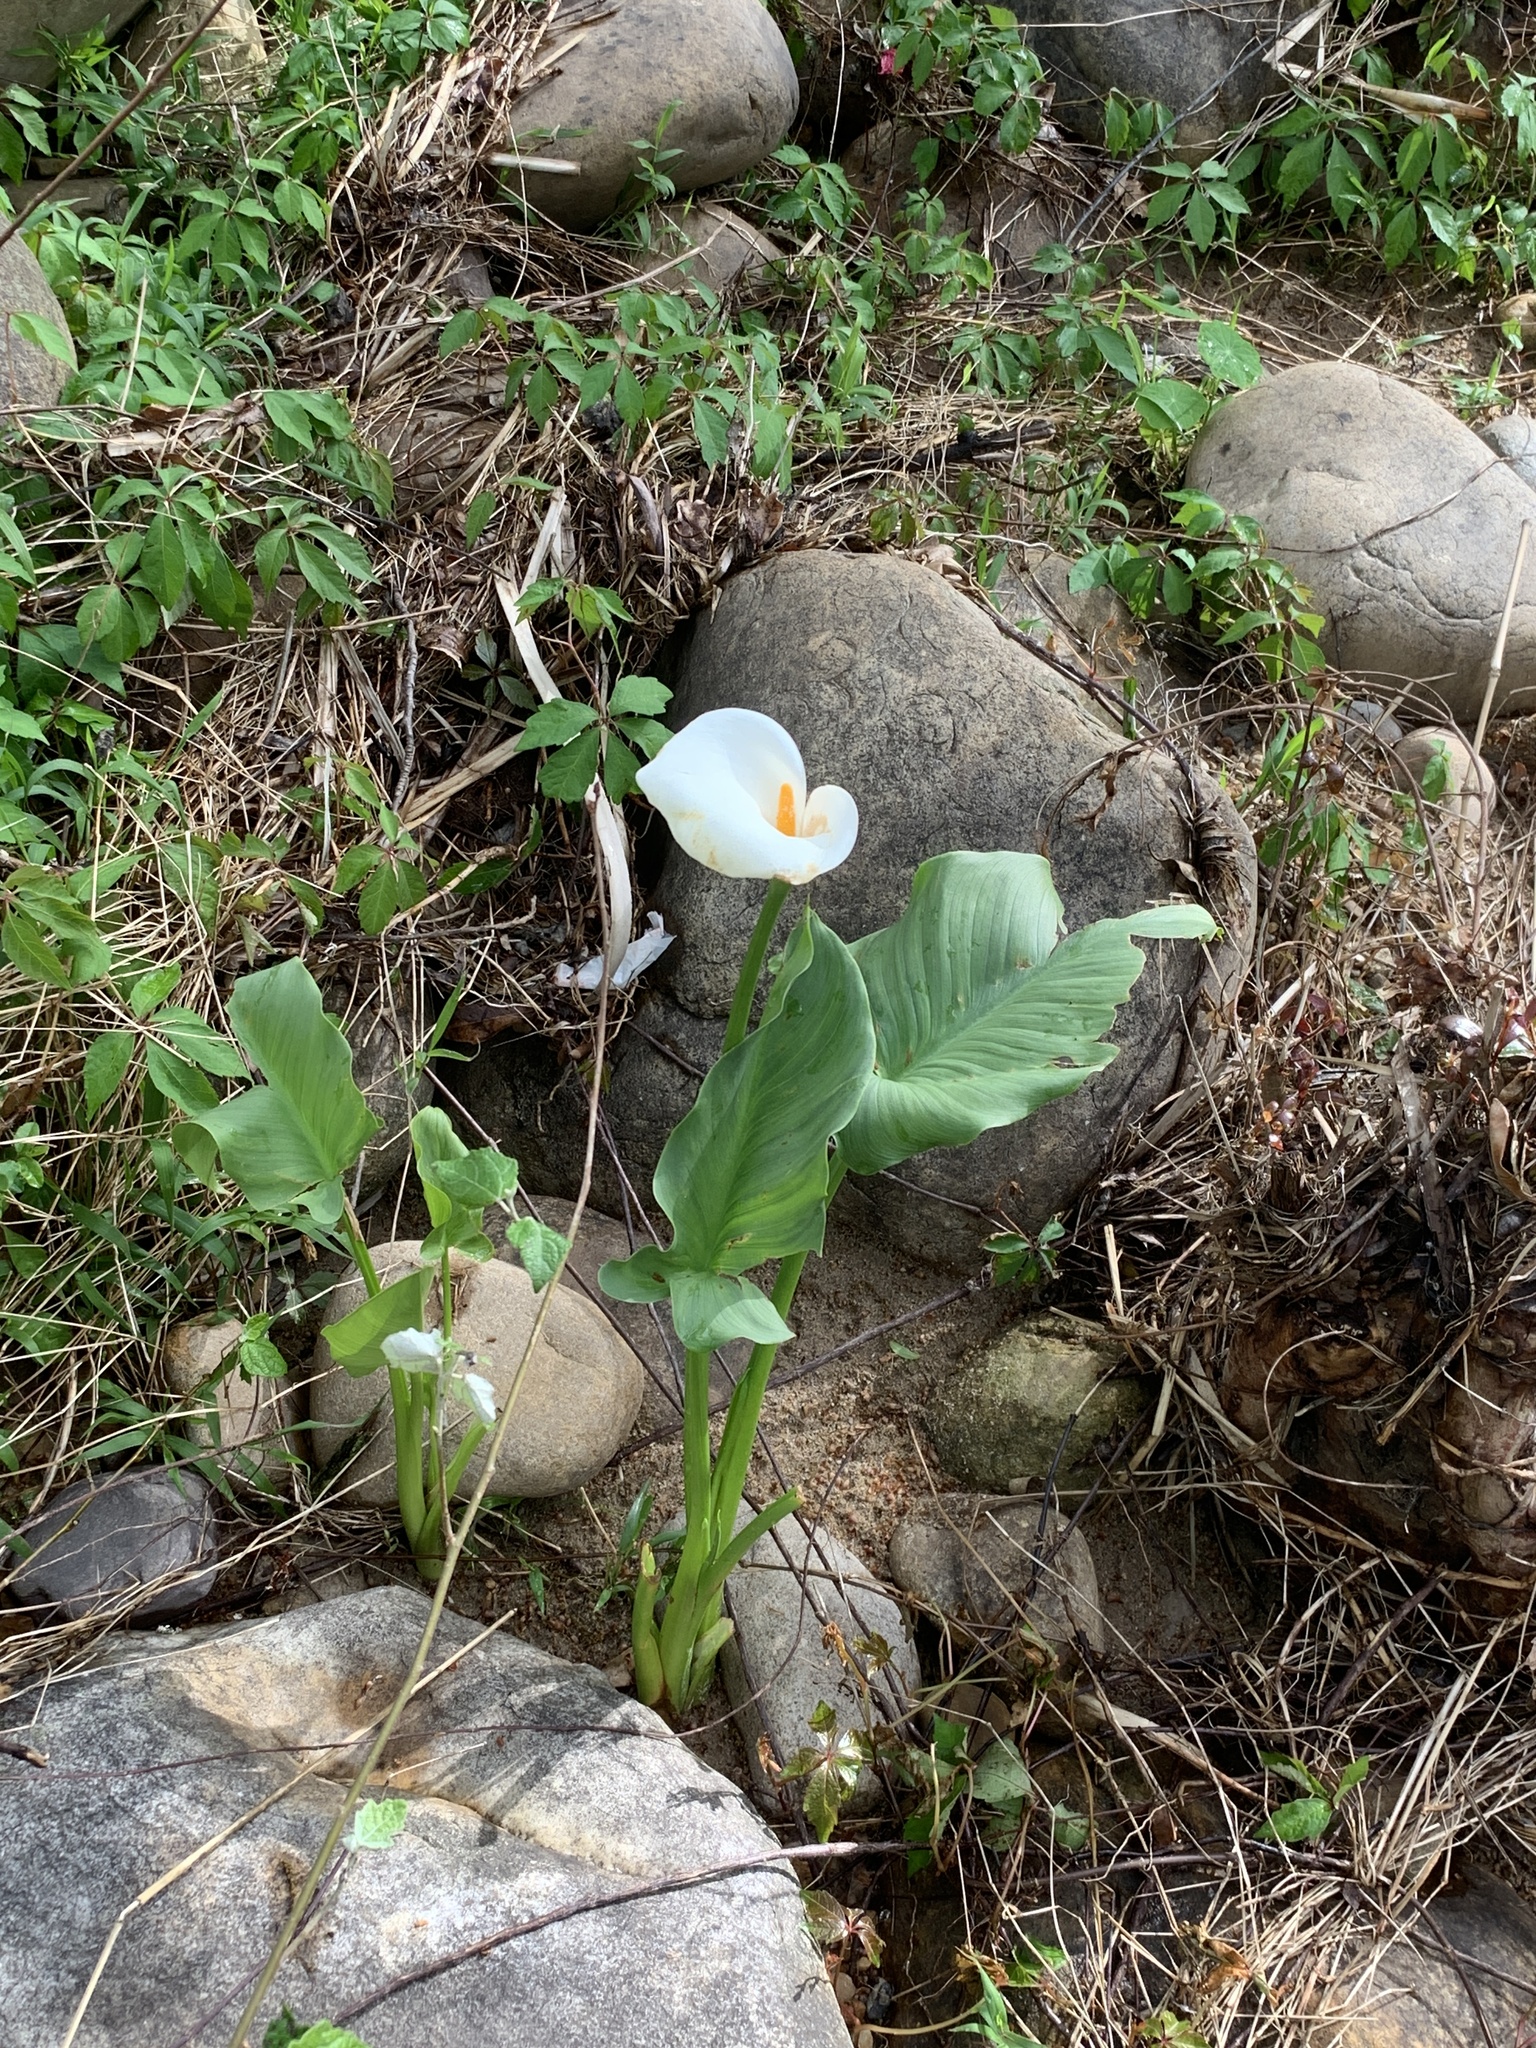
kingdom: Plantae
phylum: Tracheophyta
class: Liliopsida
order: Alismatales
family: Araceae
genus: Zantedeschia
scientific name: Zantedeschia aethiopica
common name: Altar-lily
